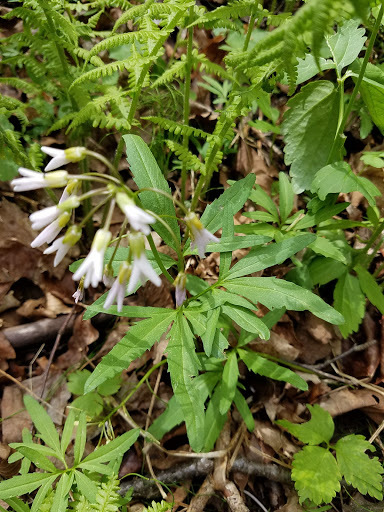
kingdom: Plantae
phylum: Tracheophyta
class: Magnoliopsida
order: Brassicales
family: Brassicaceae
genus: Cardamine
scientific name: Cardamine concatenata
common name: Cut-leaf toothcup
